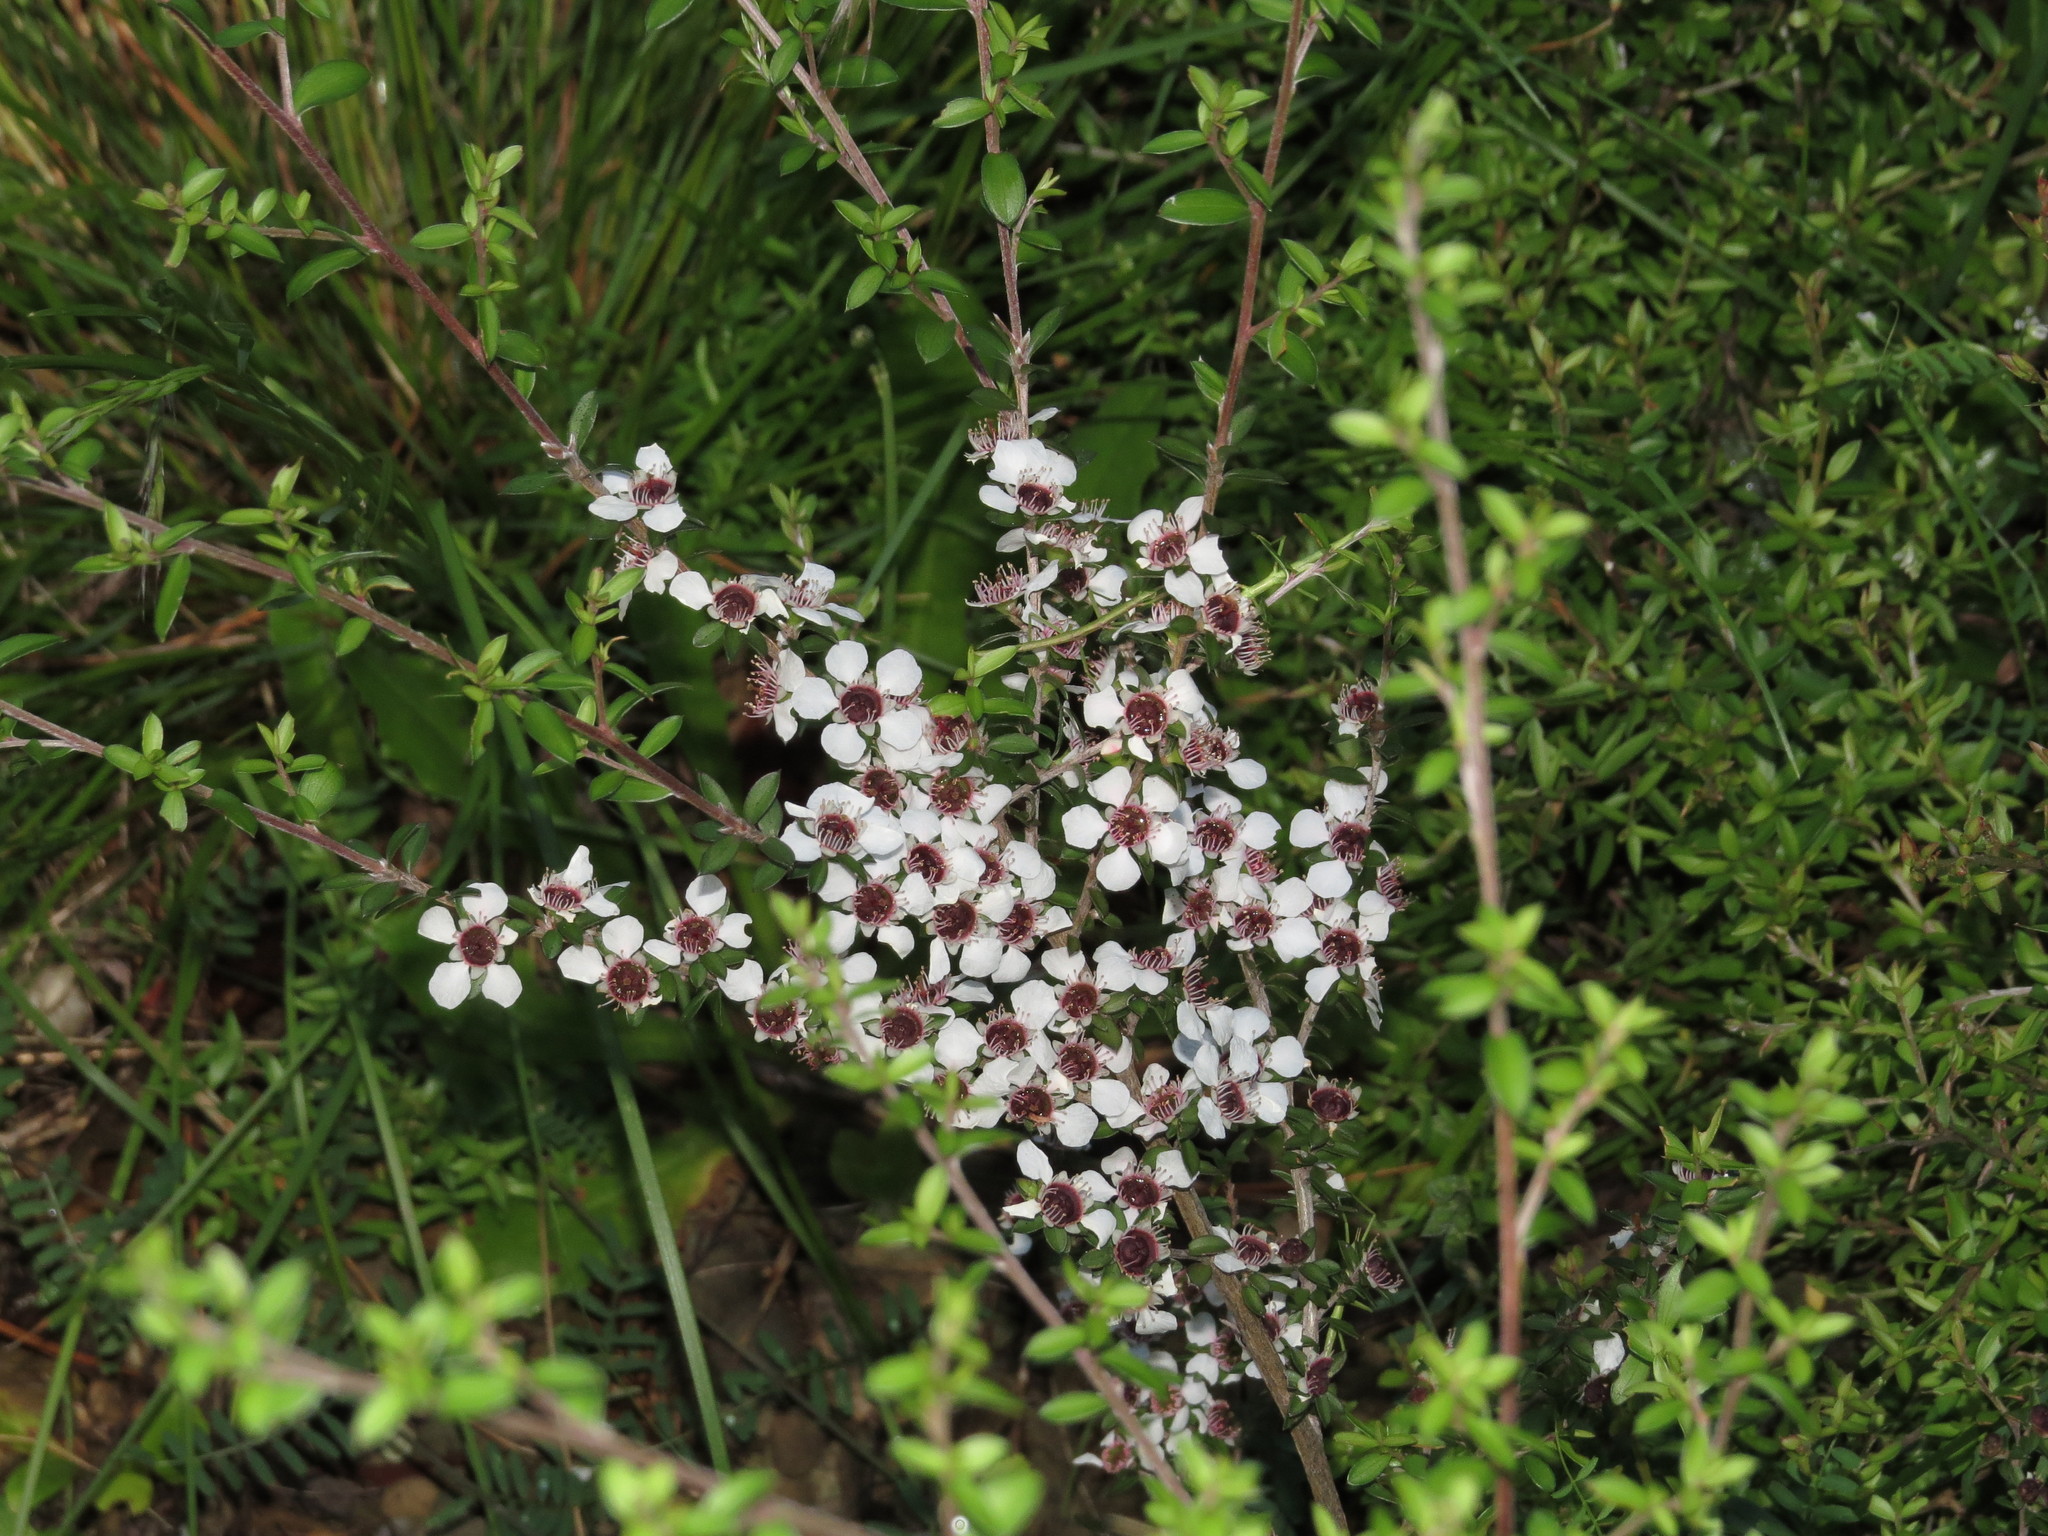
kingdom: Plantae
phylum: Tracheophyta
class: Magnoliopsida
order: Myrtales
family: Myrtaceae
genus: Leptospermum
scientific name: Leptospermum scoparium
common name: Broom tea-tree
